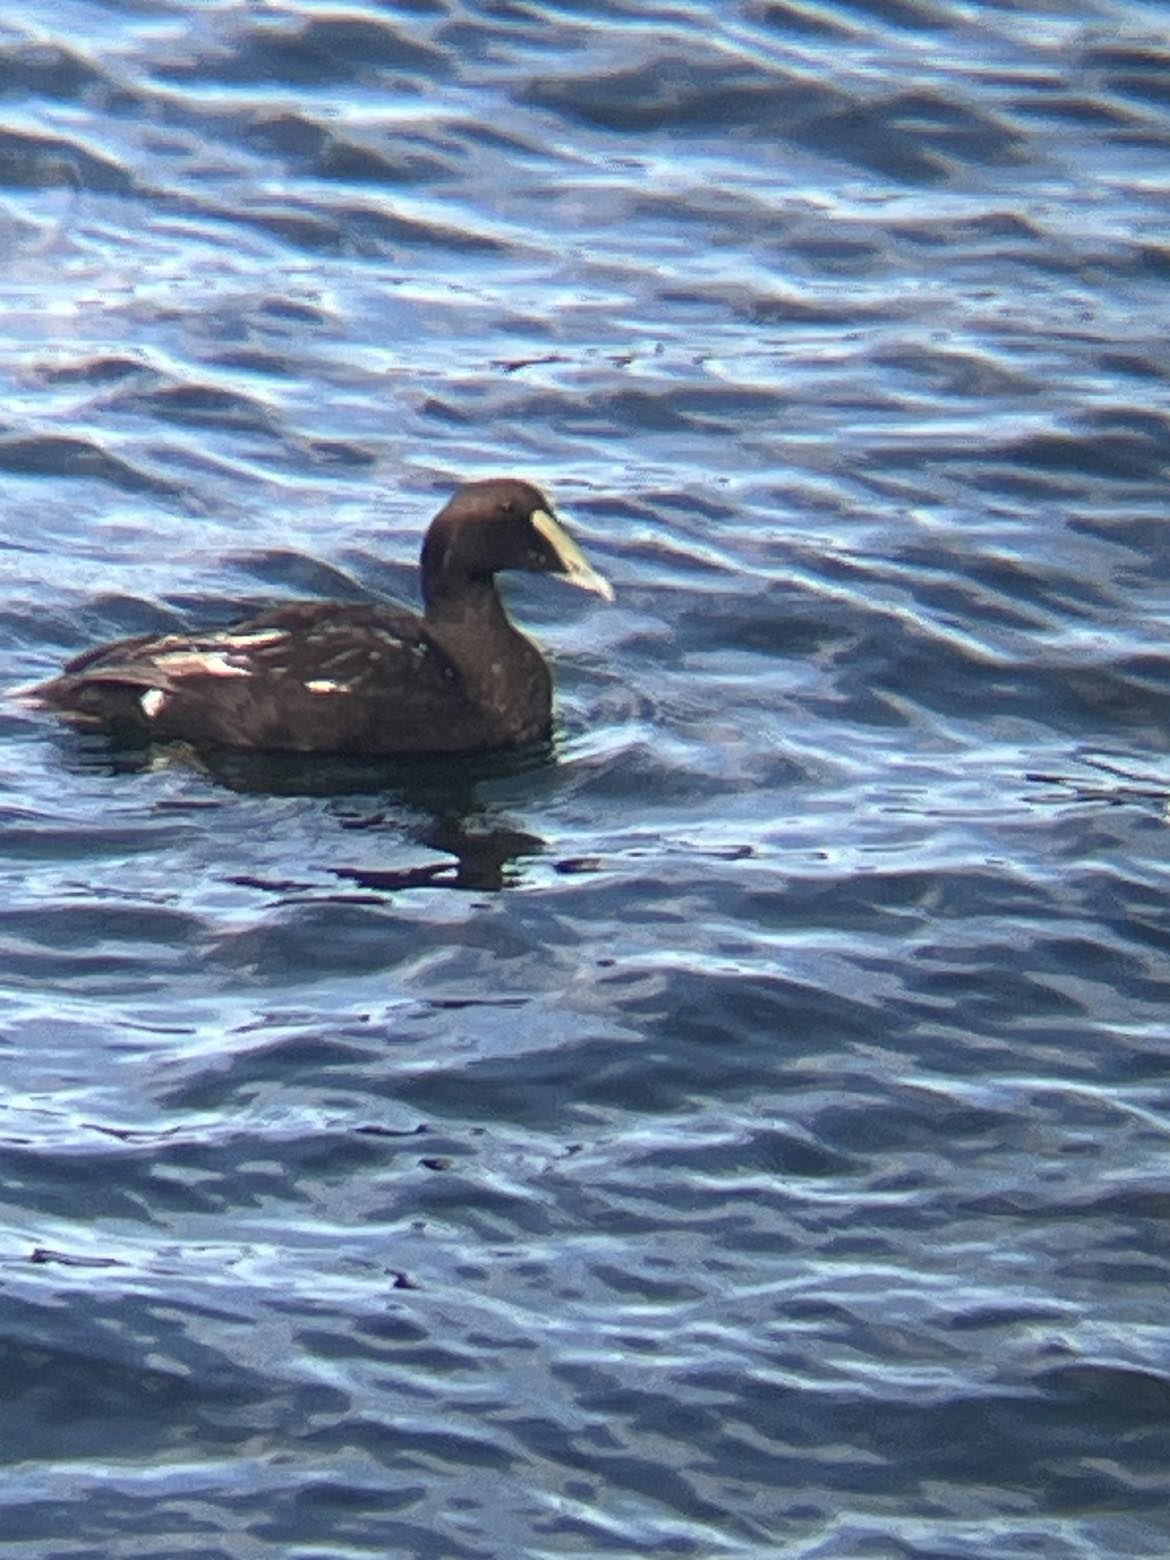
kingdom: Animalia
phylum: Chordata
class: Aves
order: Anseriformes
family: Anatidae
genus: Somateria
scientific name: Somateria mollissima
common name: Common eider
